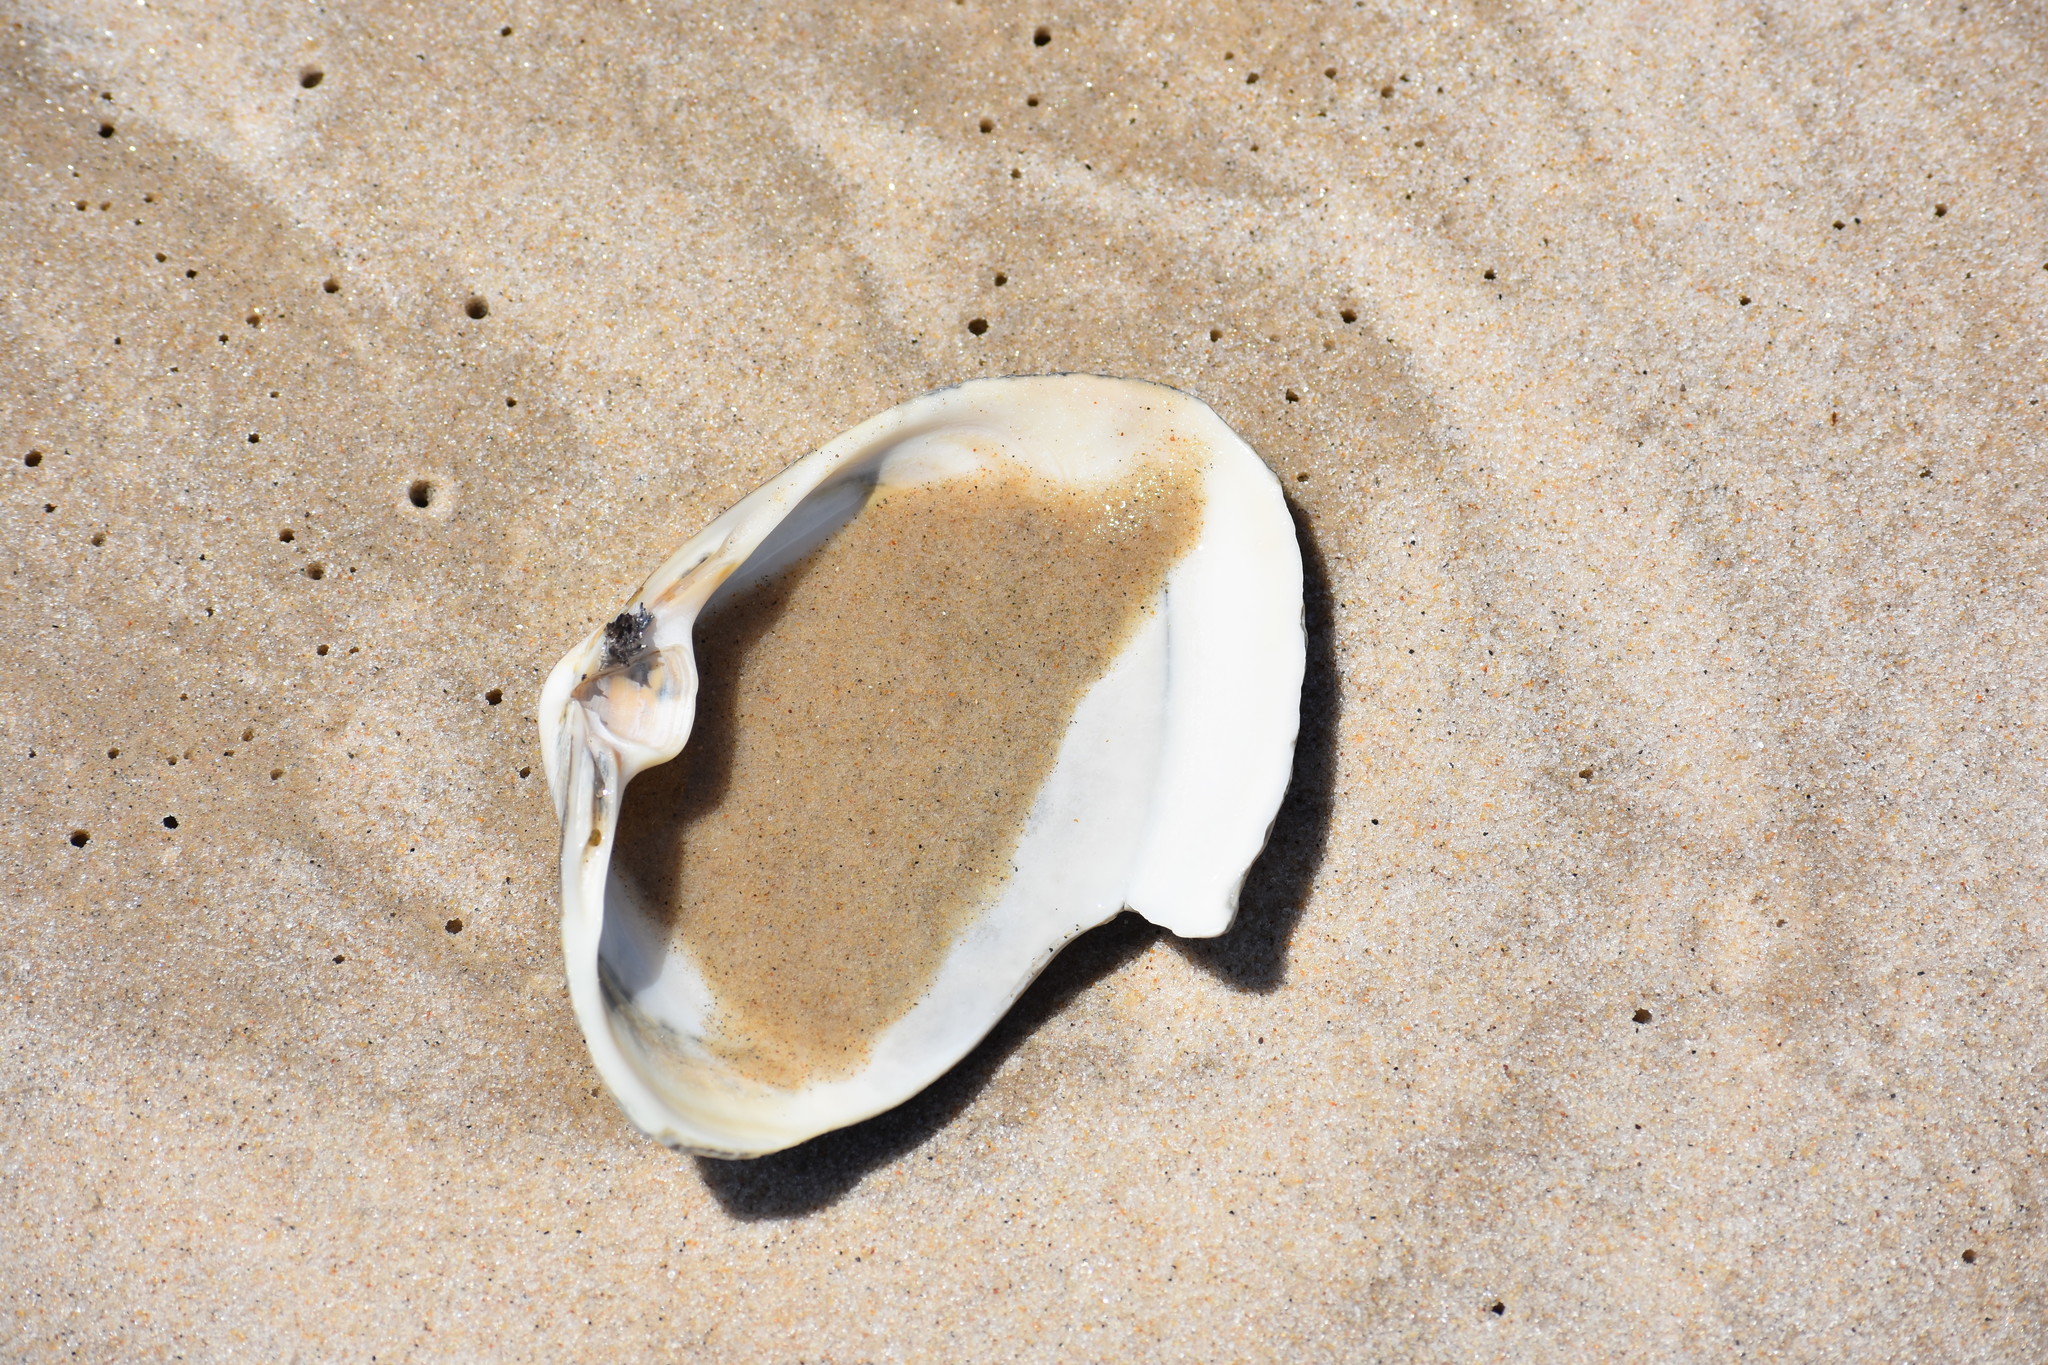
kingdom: Animalia
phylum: Mollusca
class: Bivalvia
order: Venerida
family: Mactridae
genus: Spisula
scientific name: Spisula solidissima
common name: Atlantic surf clam
